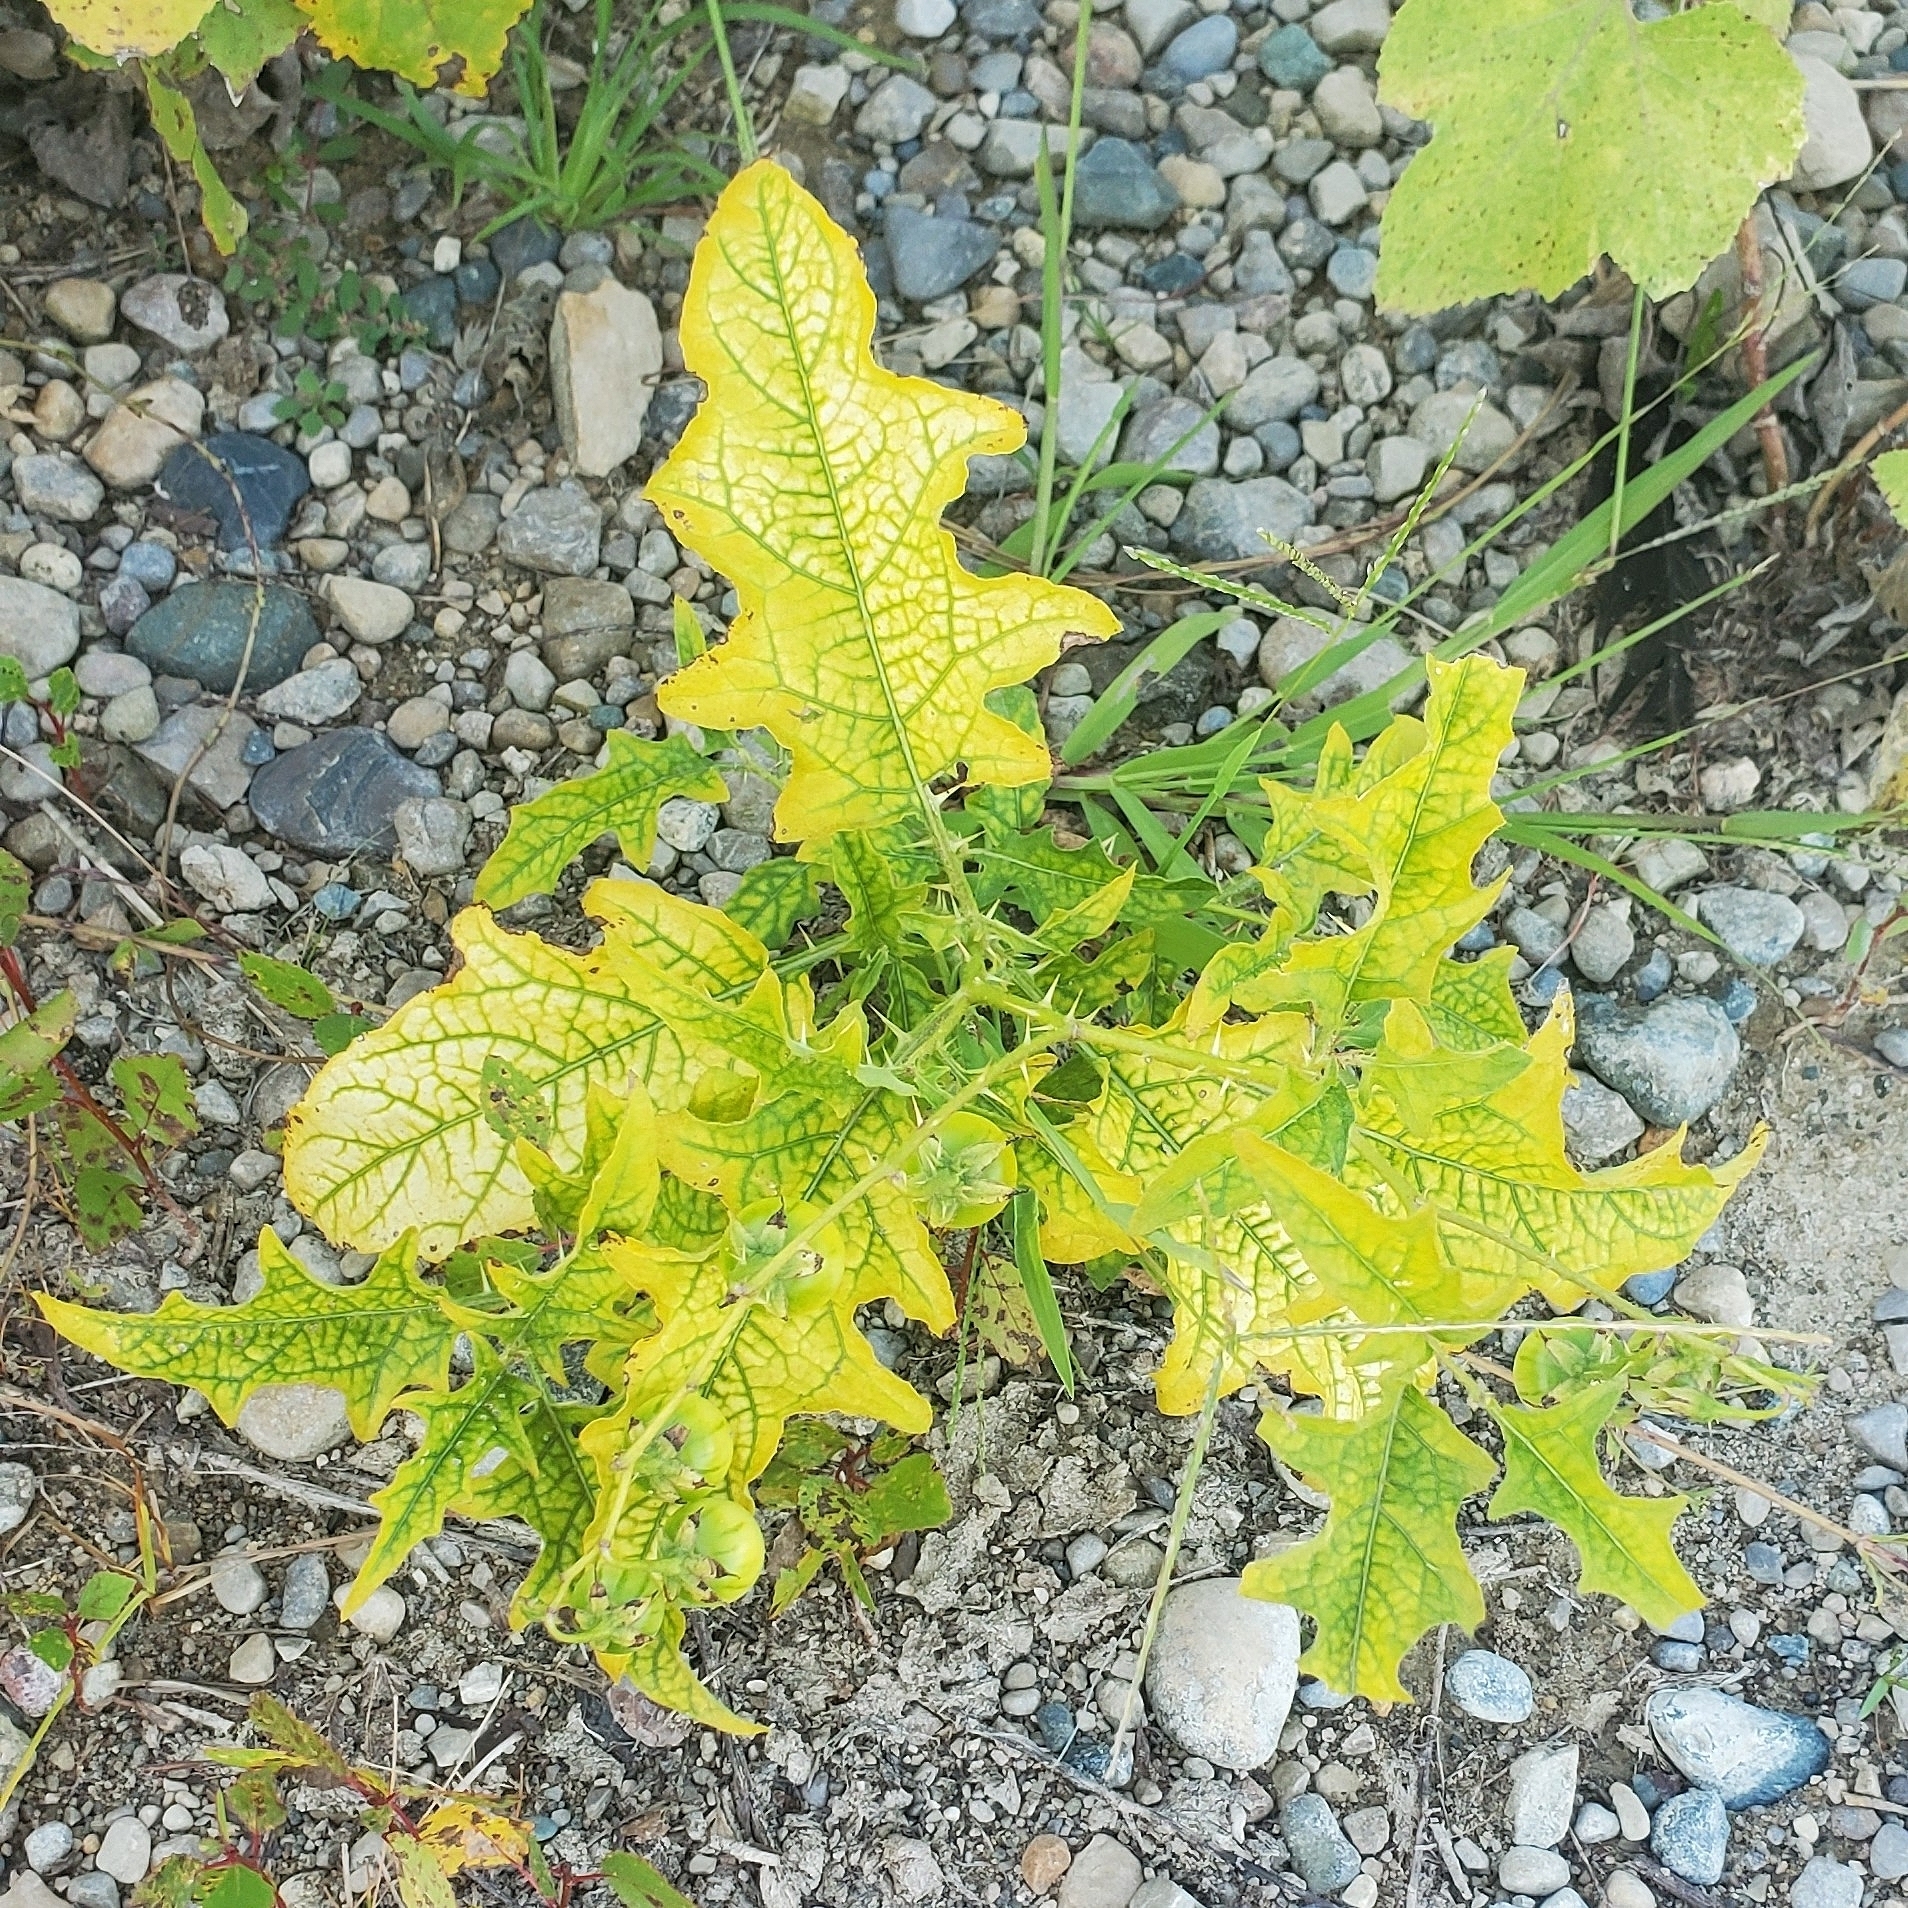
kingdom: Plantae
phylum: Tracheophyta
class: Magnoliopsida
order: Solanales
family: Solanaceae
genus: Solanum
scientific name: Solanum carolinense
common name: Horse-nettle
